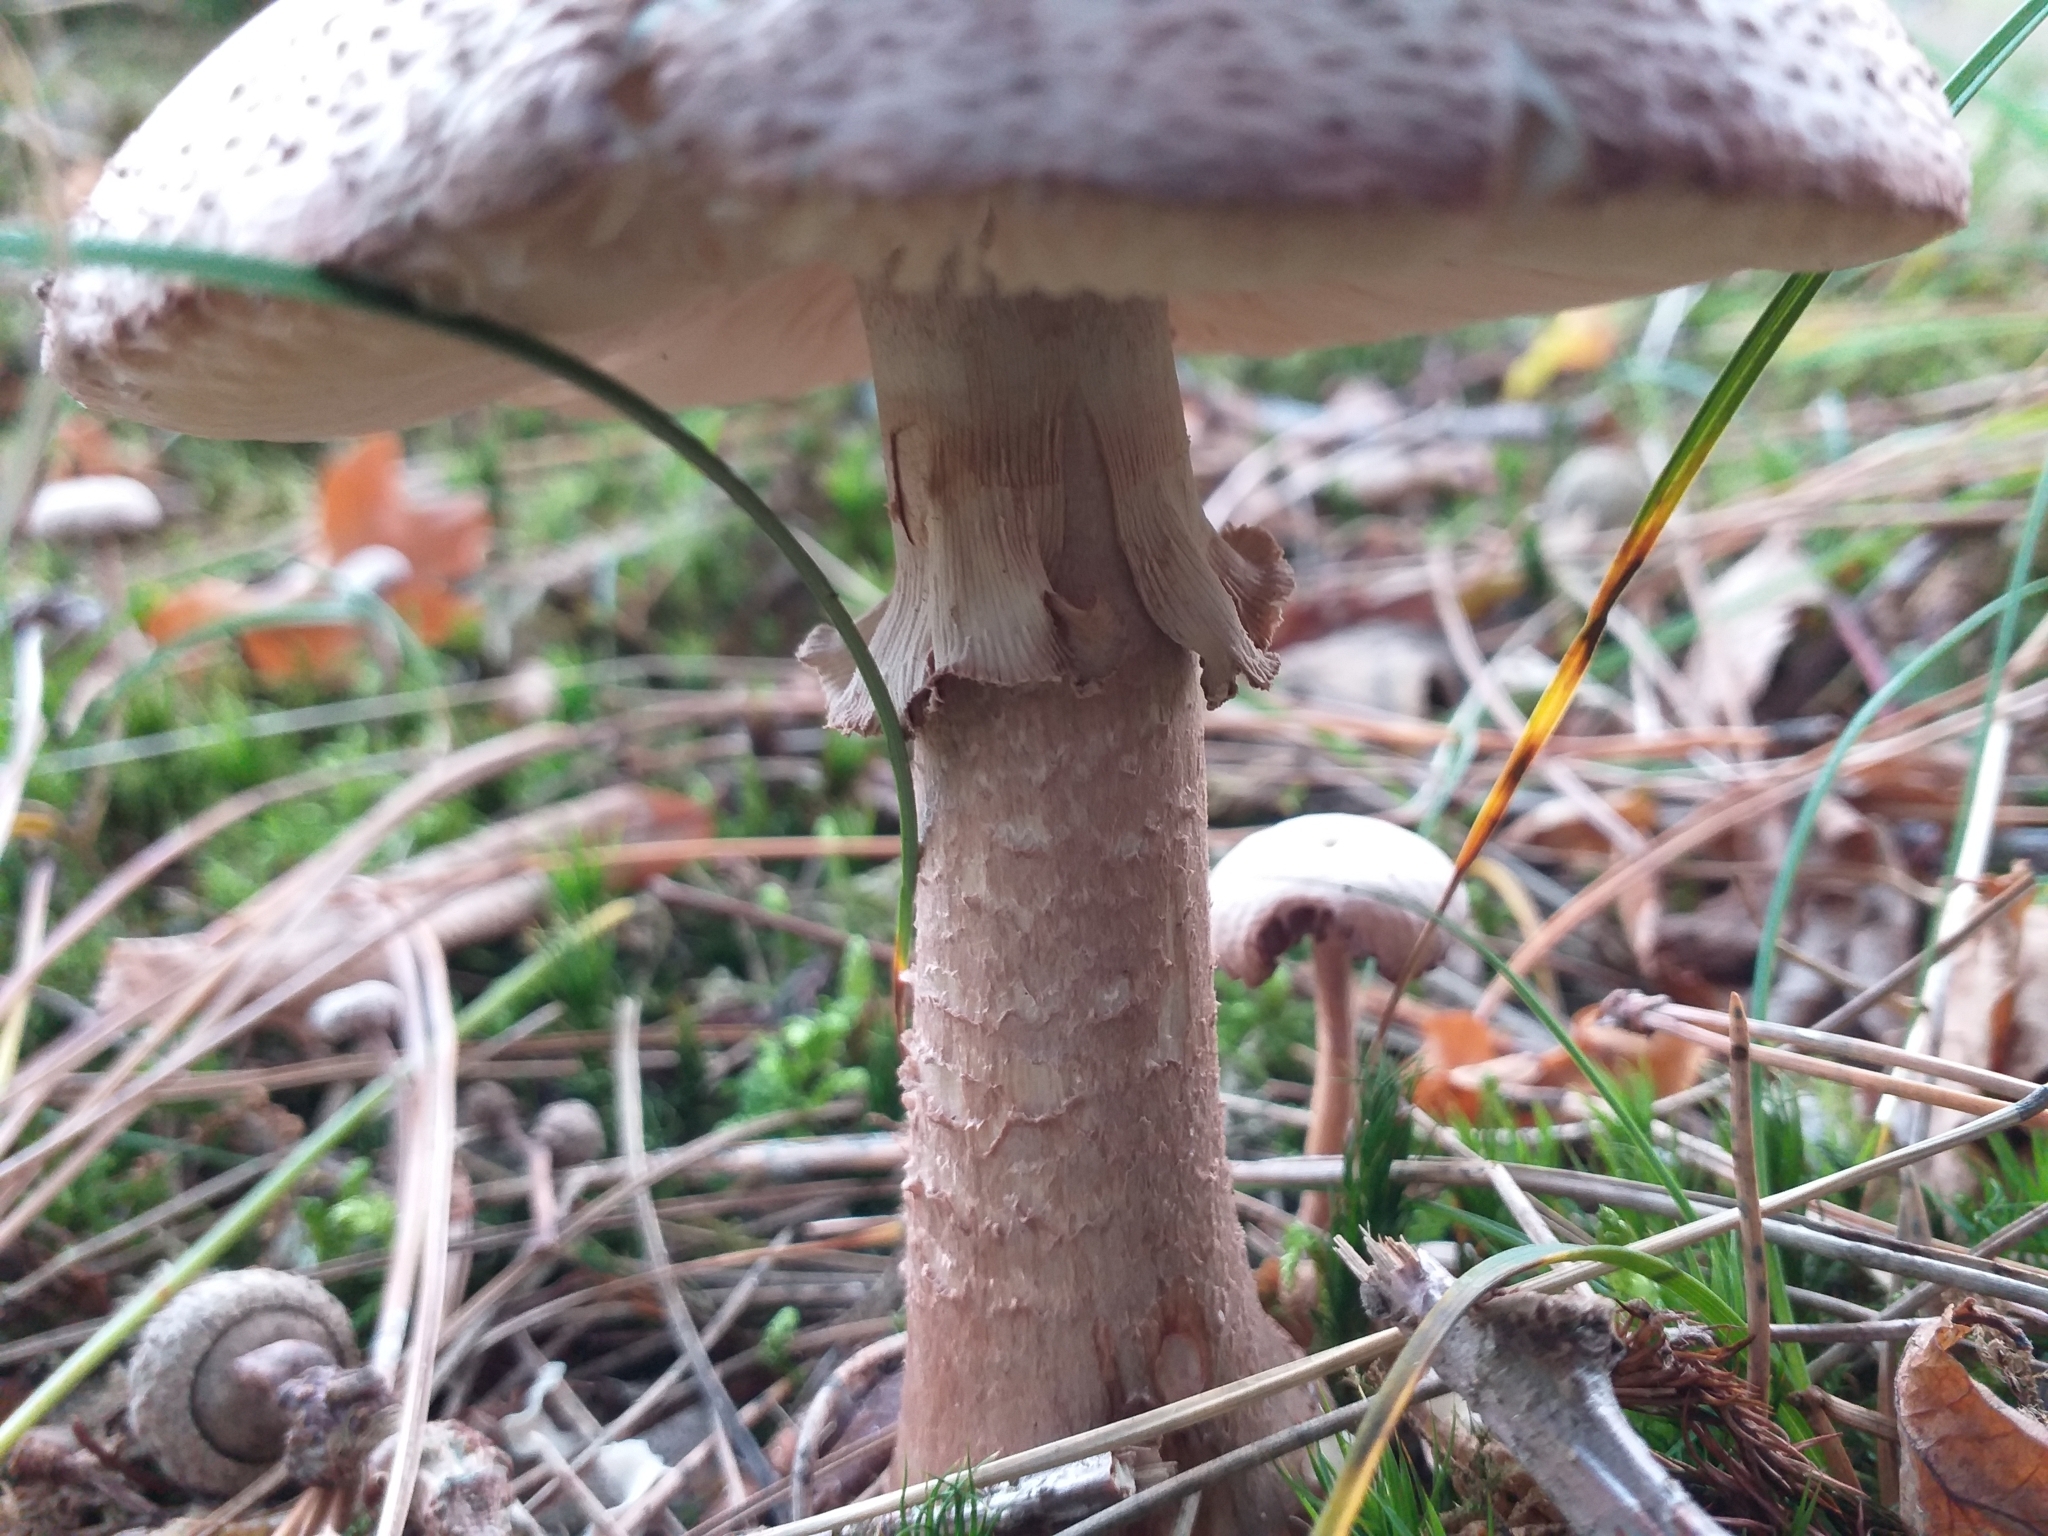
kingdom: Fungi
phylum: Basidiomycota
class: Agaricomycetes
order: Agaricales
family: Amanitaceae
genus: Amanita
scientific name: Amanita rubescens
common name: Blusher
